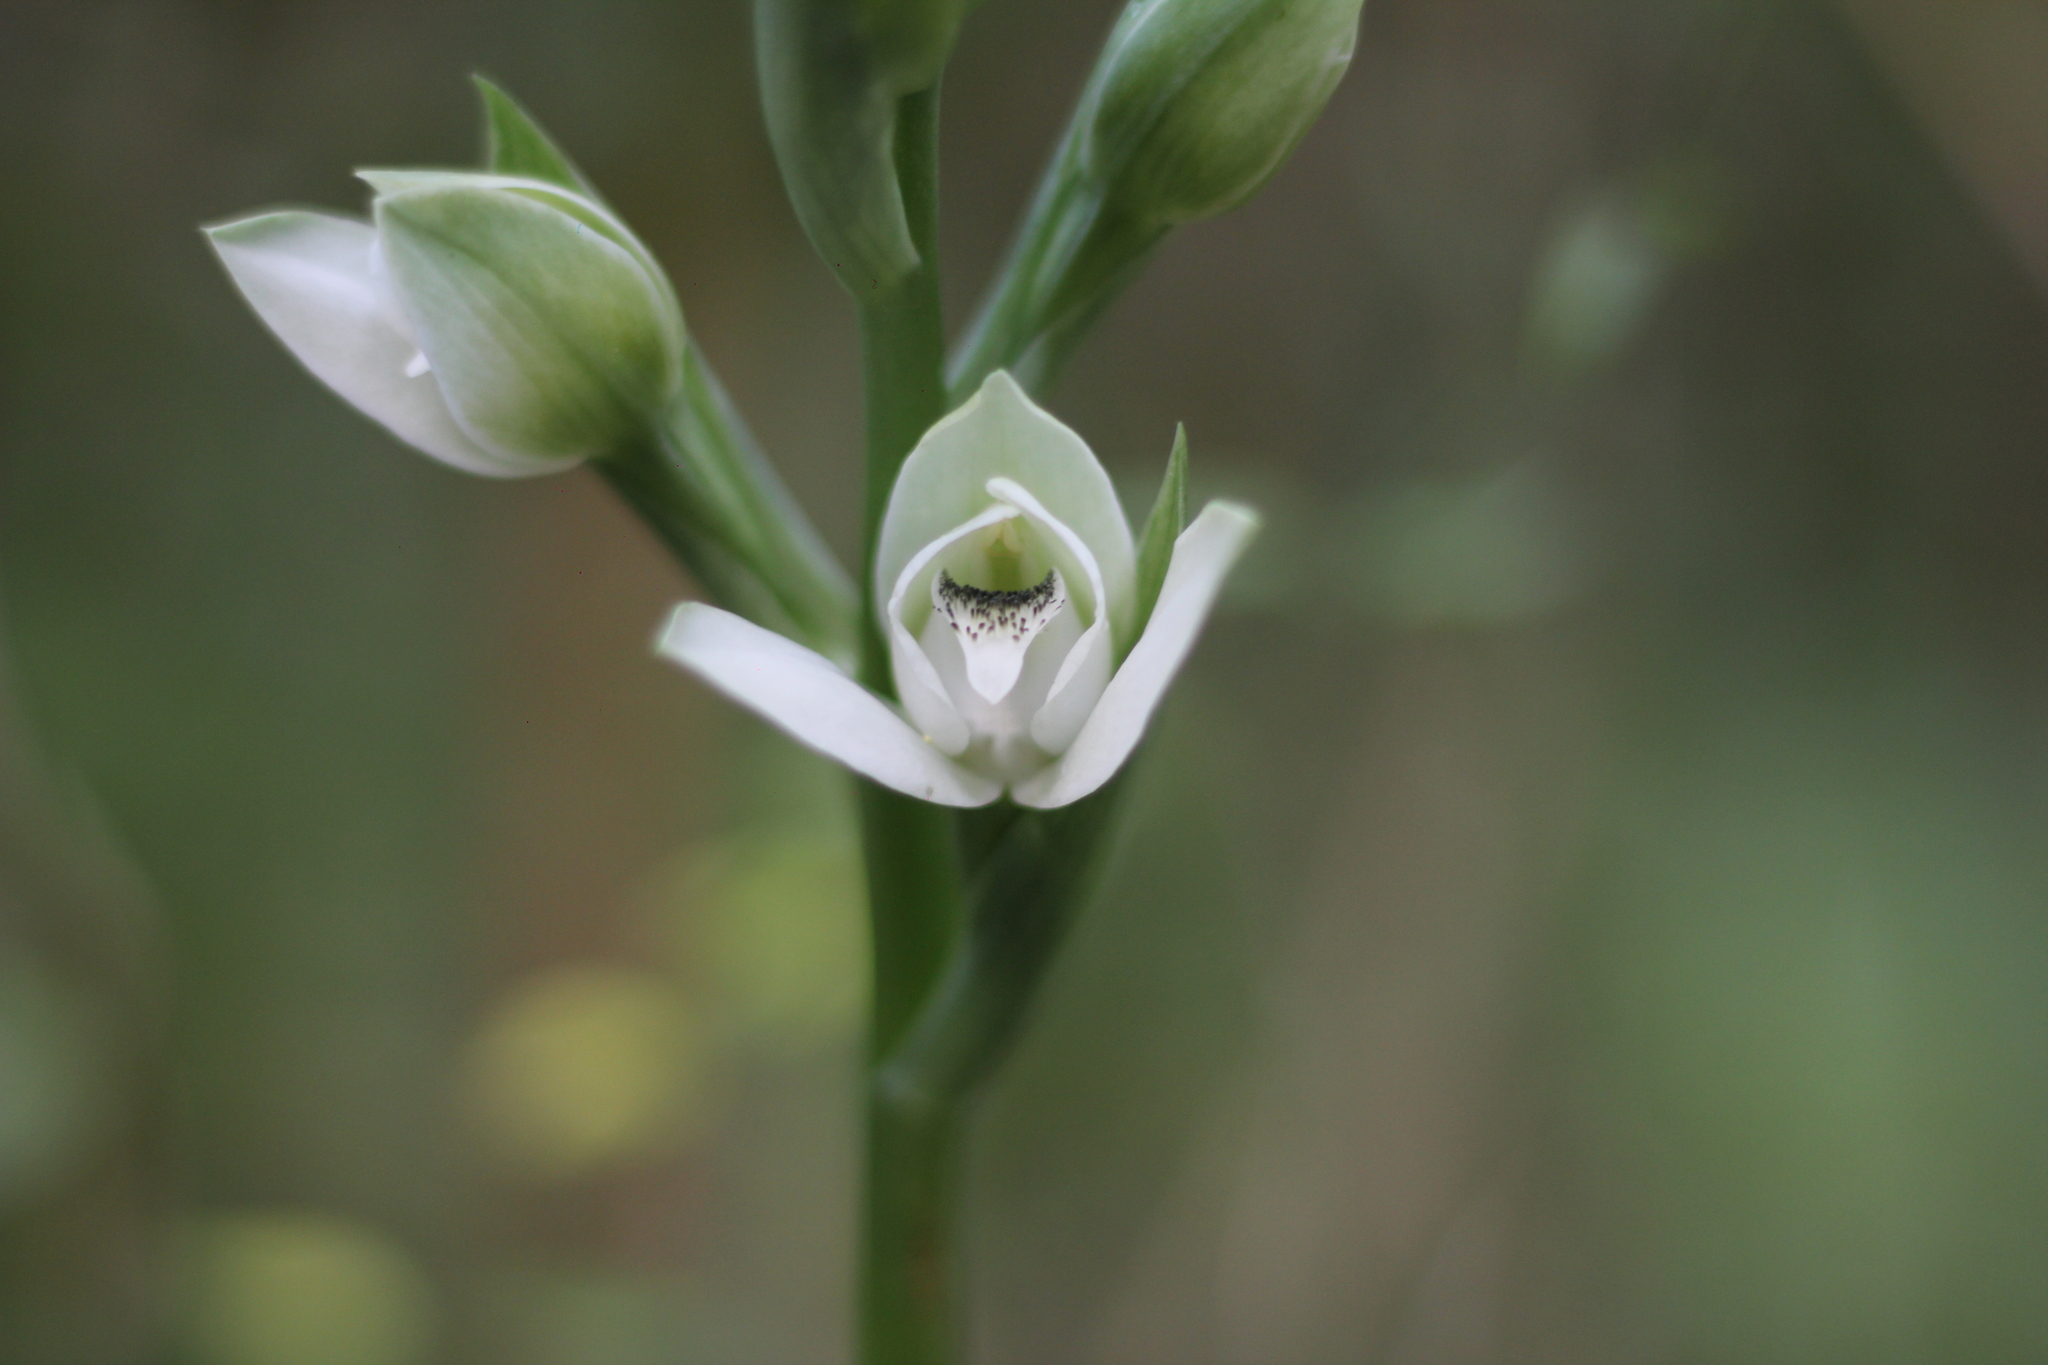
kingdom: Plantae
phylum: Tracheophyta
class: Liliopsida
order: Asparagales
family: Orchidaceae
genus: Chloraea
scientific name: Chloraea membranacea
